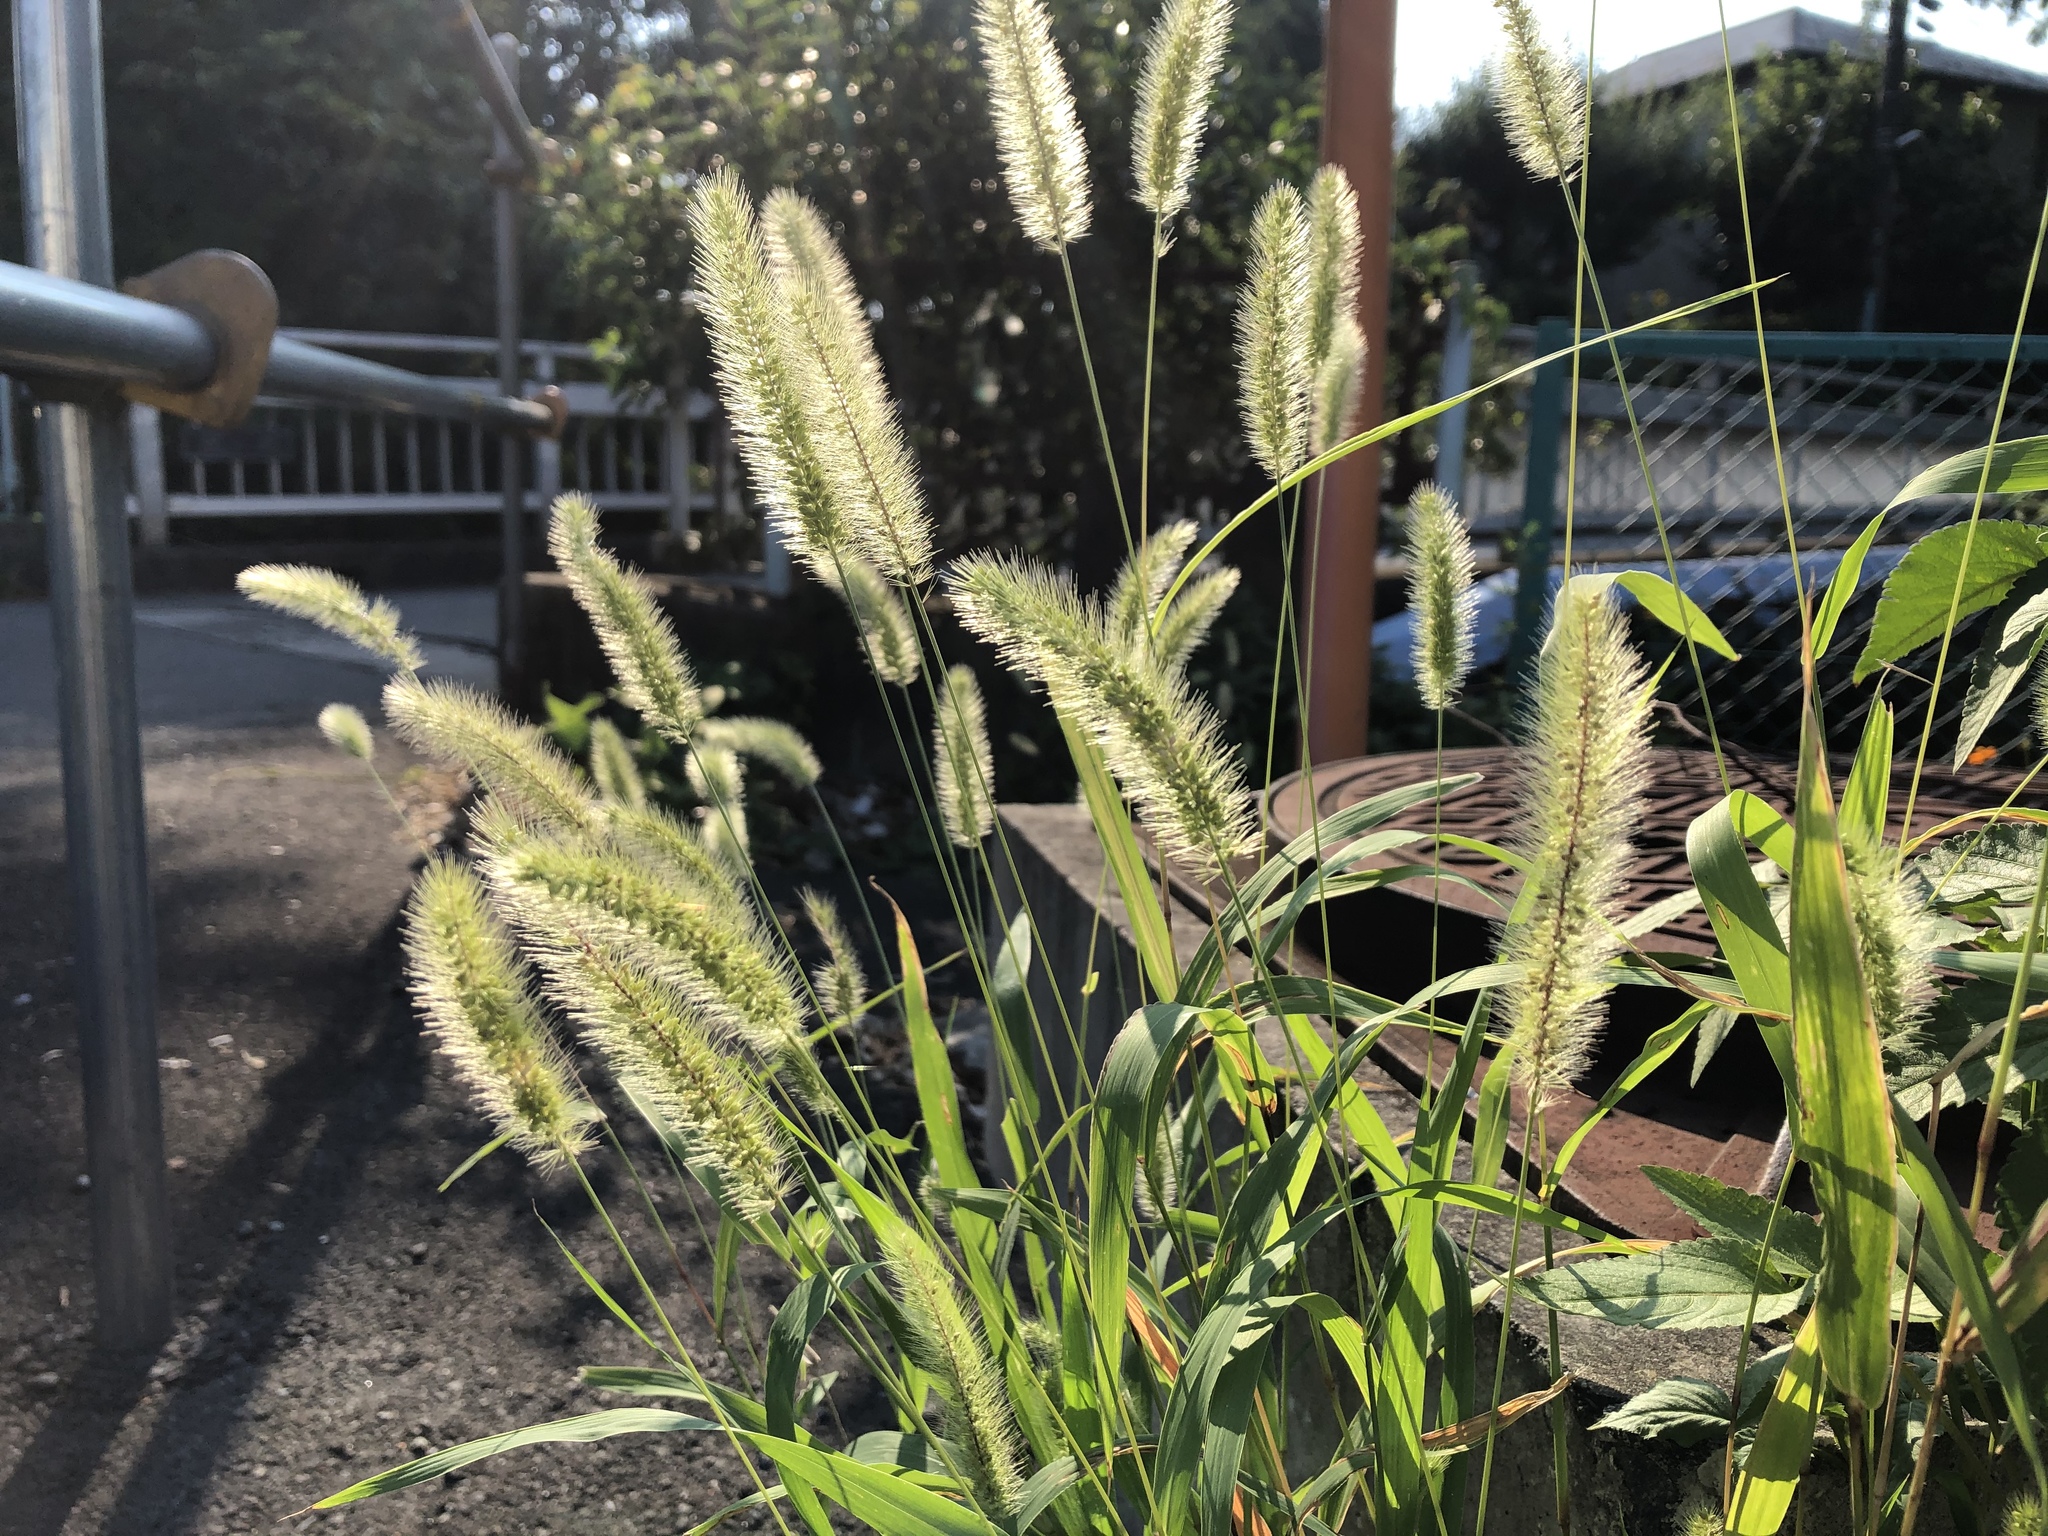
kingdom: Plantae
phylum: Tracheophyta
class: Liliopsida
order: Poales
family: Poaceae
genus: Setaria
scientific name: Setaria viridis
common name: Green bristlegrass
